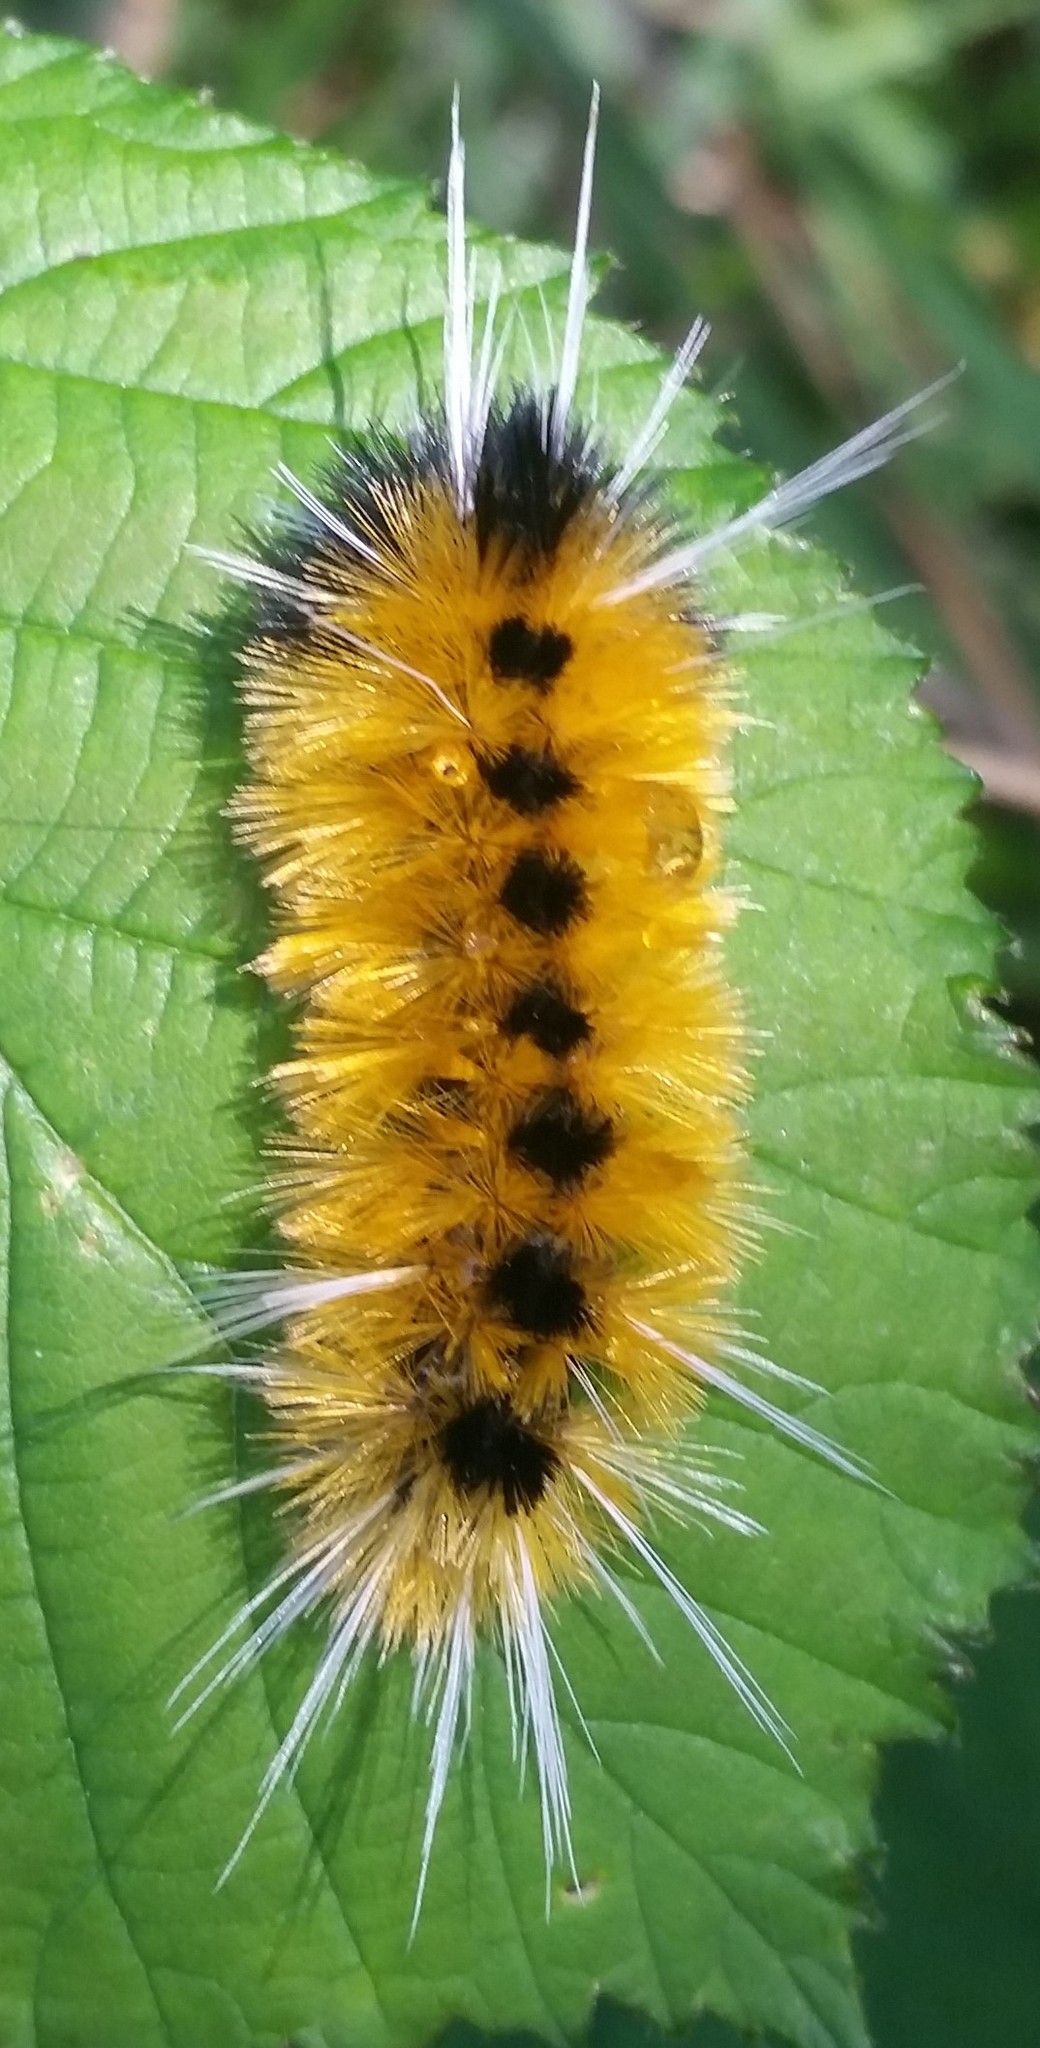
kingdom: Animalia
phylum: Arthropoda
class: Insecta
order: Lepidoptera
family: Erebidae
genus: Lophocampa
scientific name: Lophocampa maculata
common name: Spotted tussock moth
